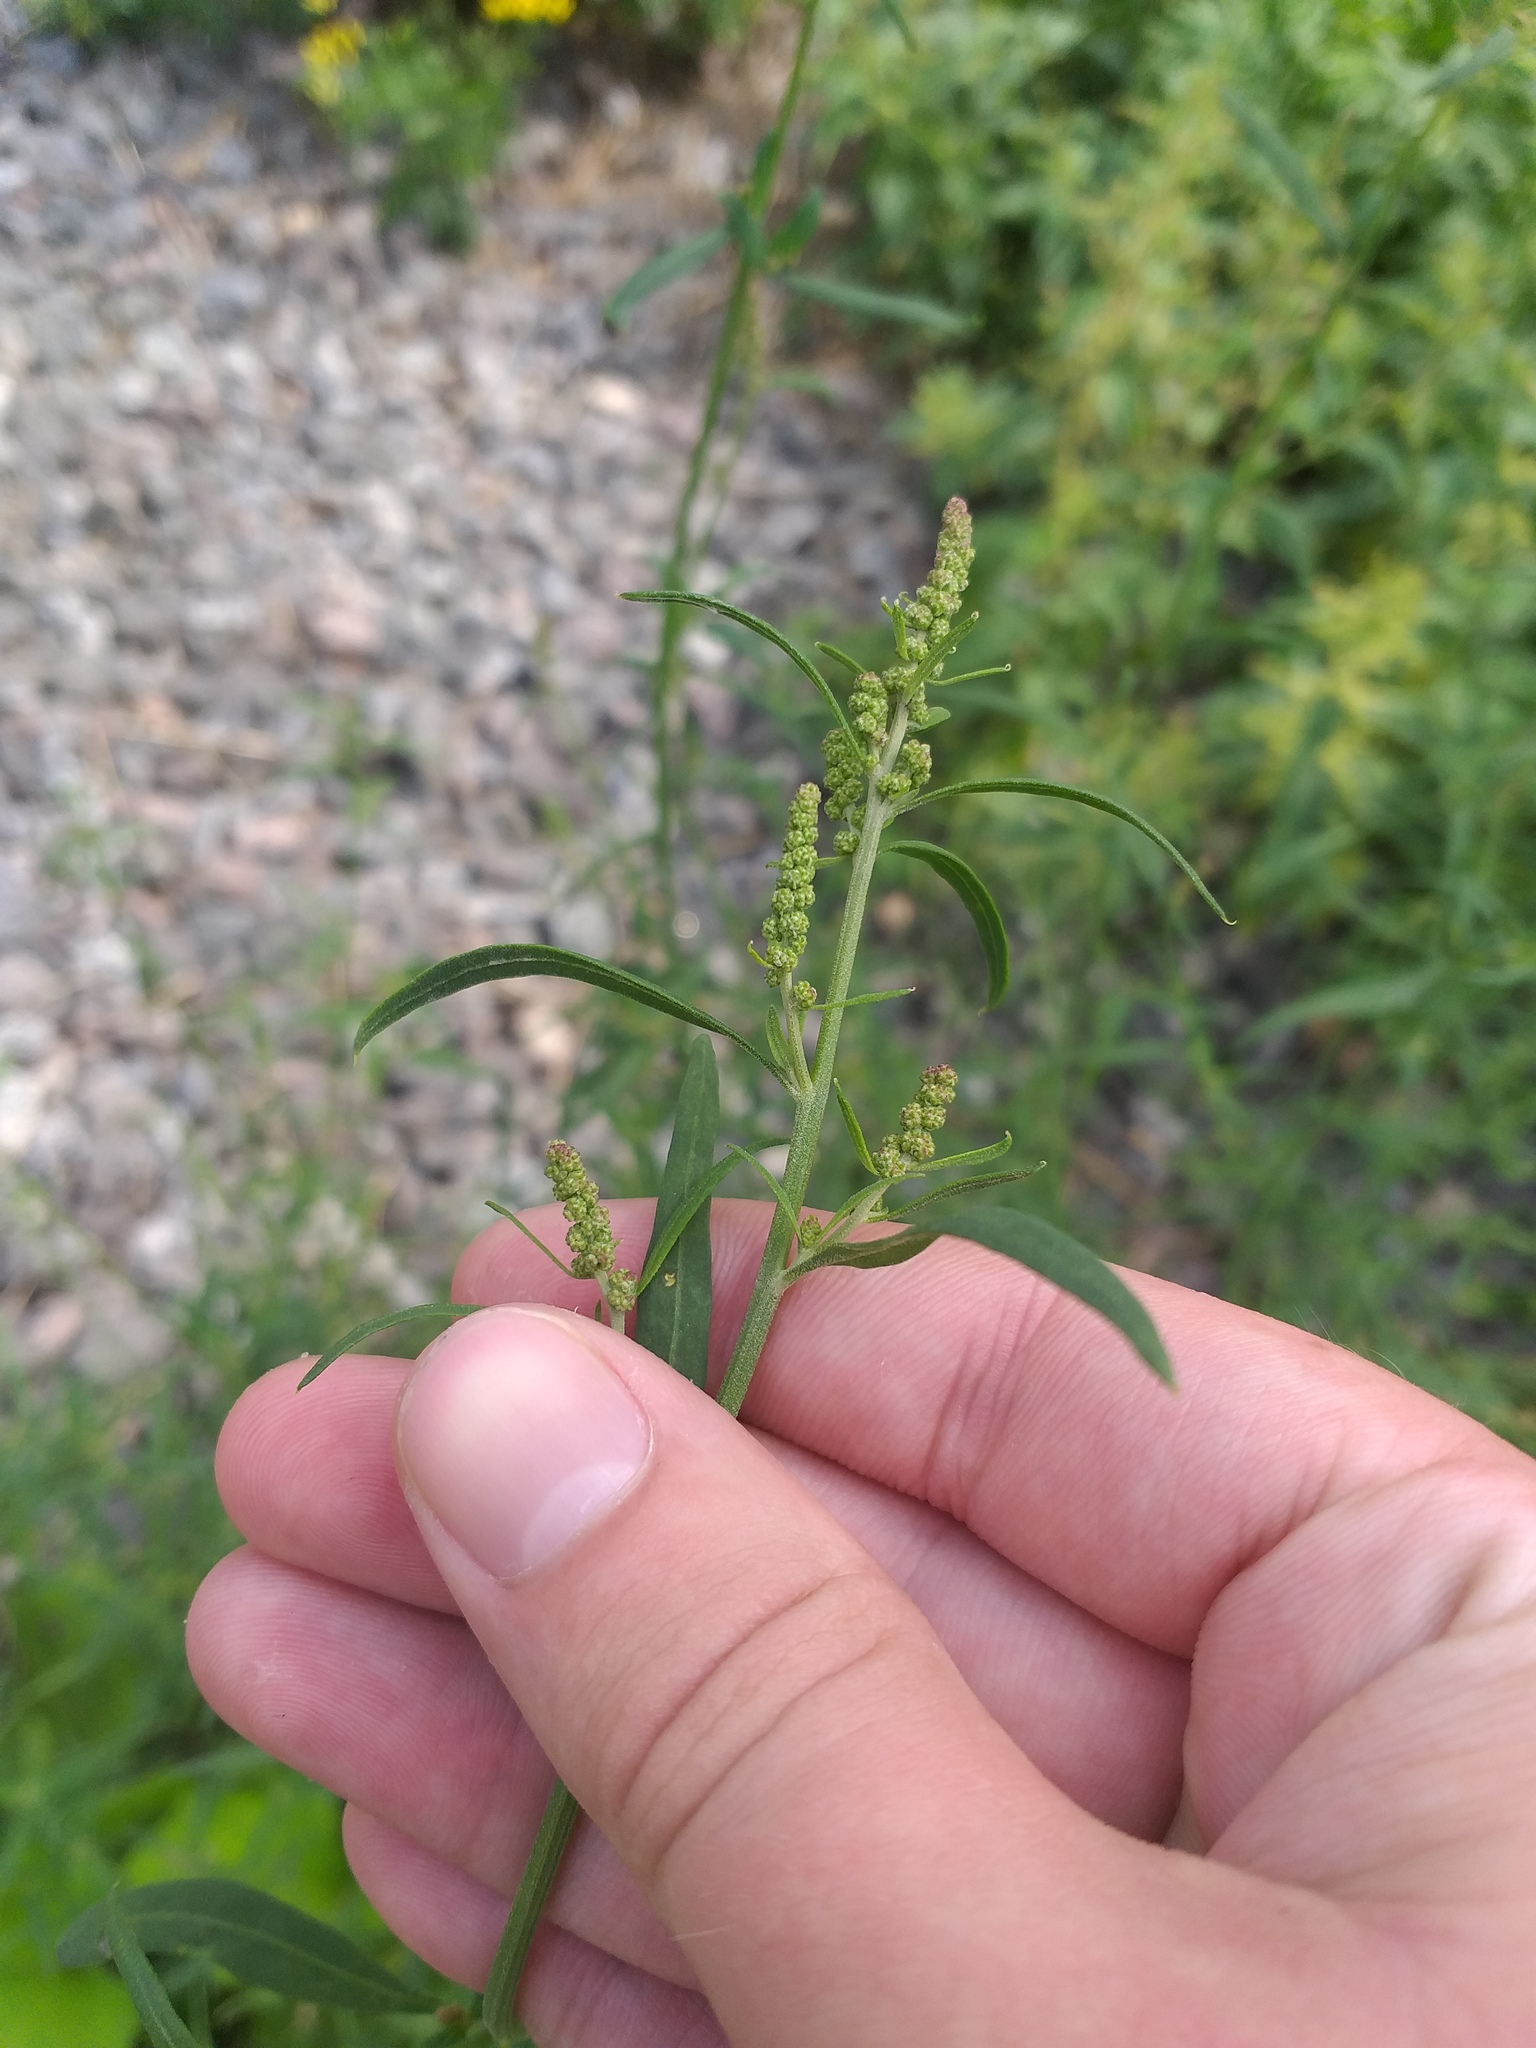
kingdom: Plantae
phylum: Tracheophyta
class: Magnoliopsida
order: Caryophyllales
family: Amaranthaceae
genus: Atriplex
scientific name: Atriplex patula
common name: Common orache
